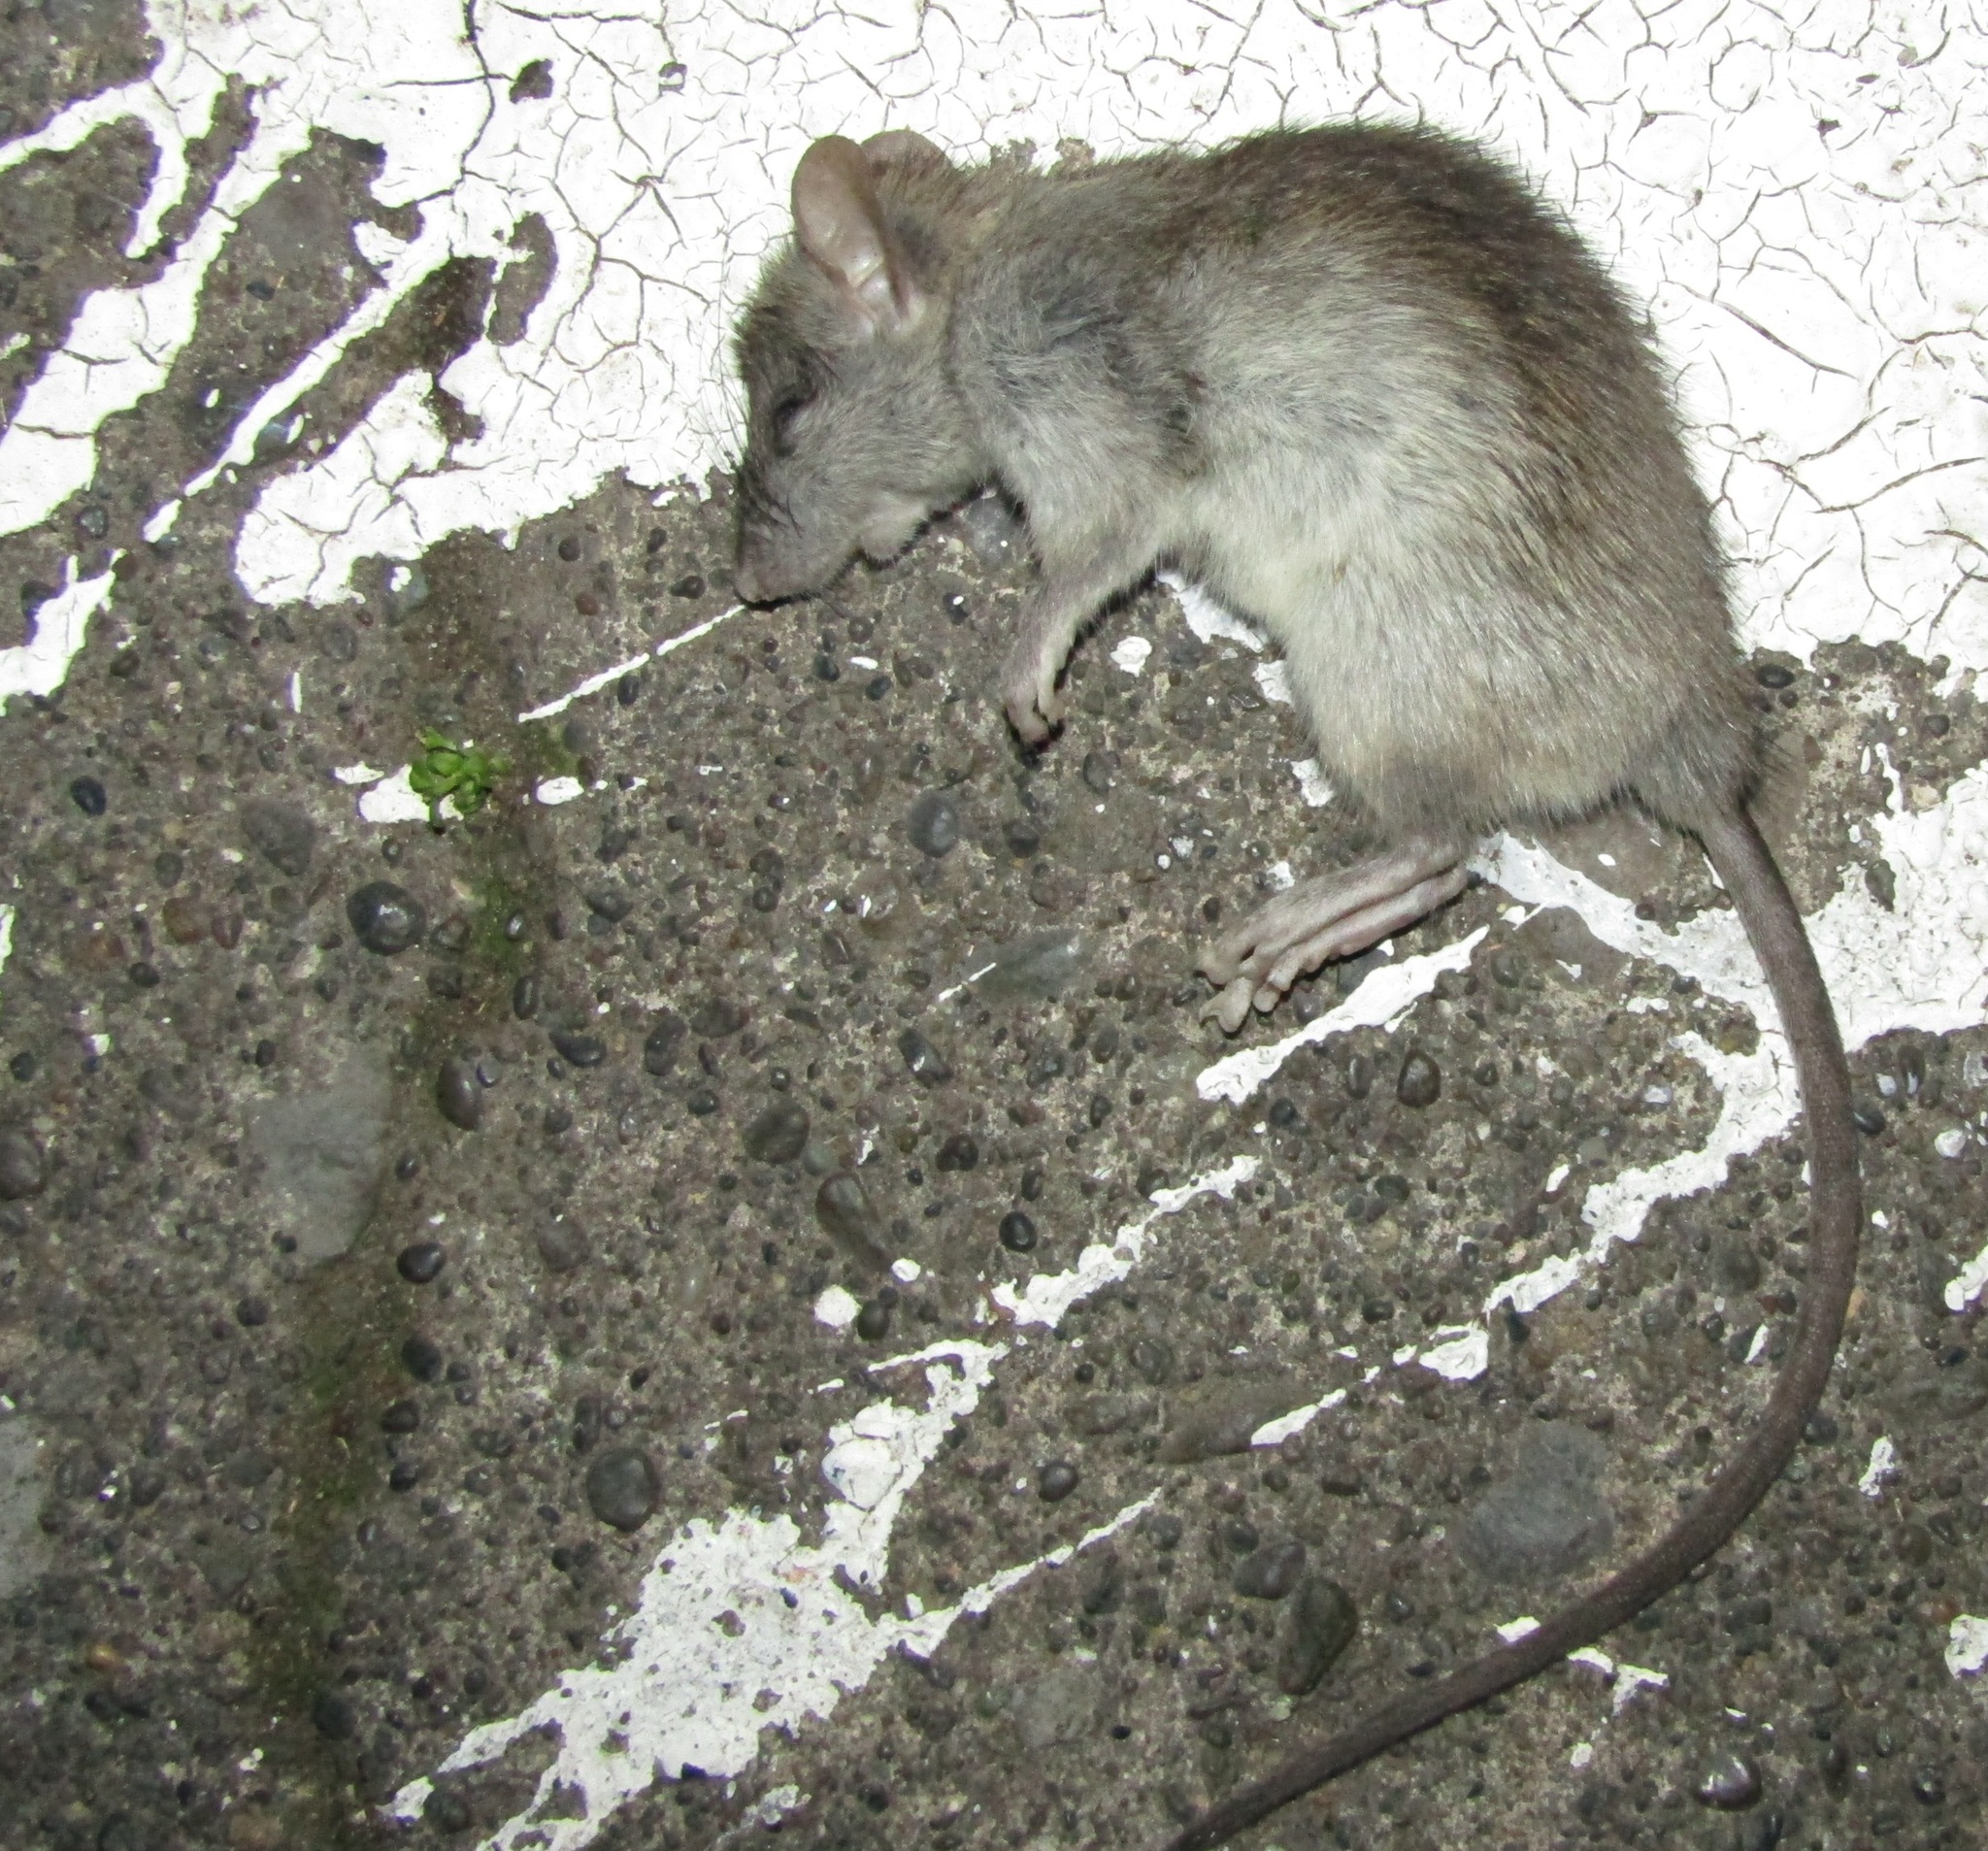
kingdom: Animalia
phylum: Chordata
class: Mammalia
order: Rodentia
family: Muridae
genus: Rattus
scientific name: Rattus rattus
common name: Black rat
